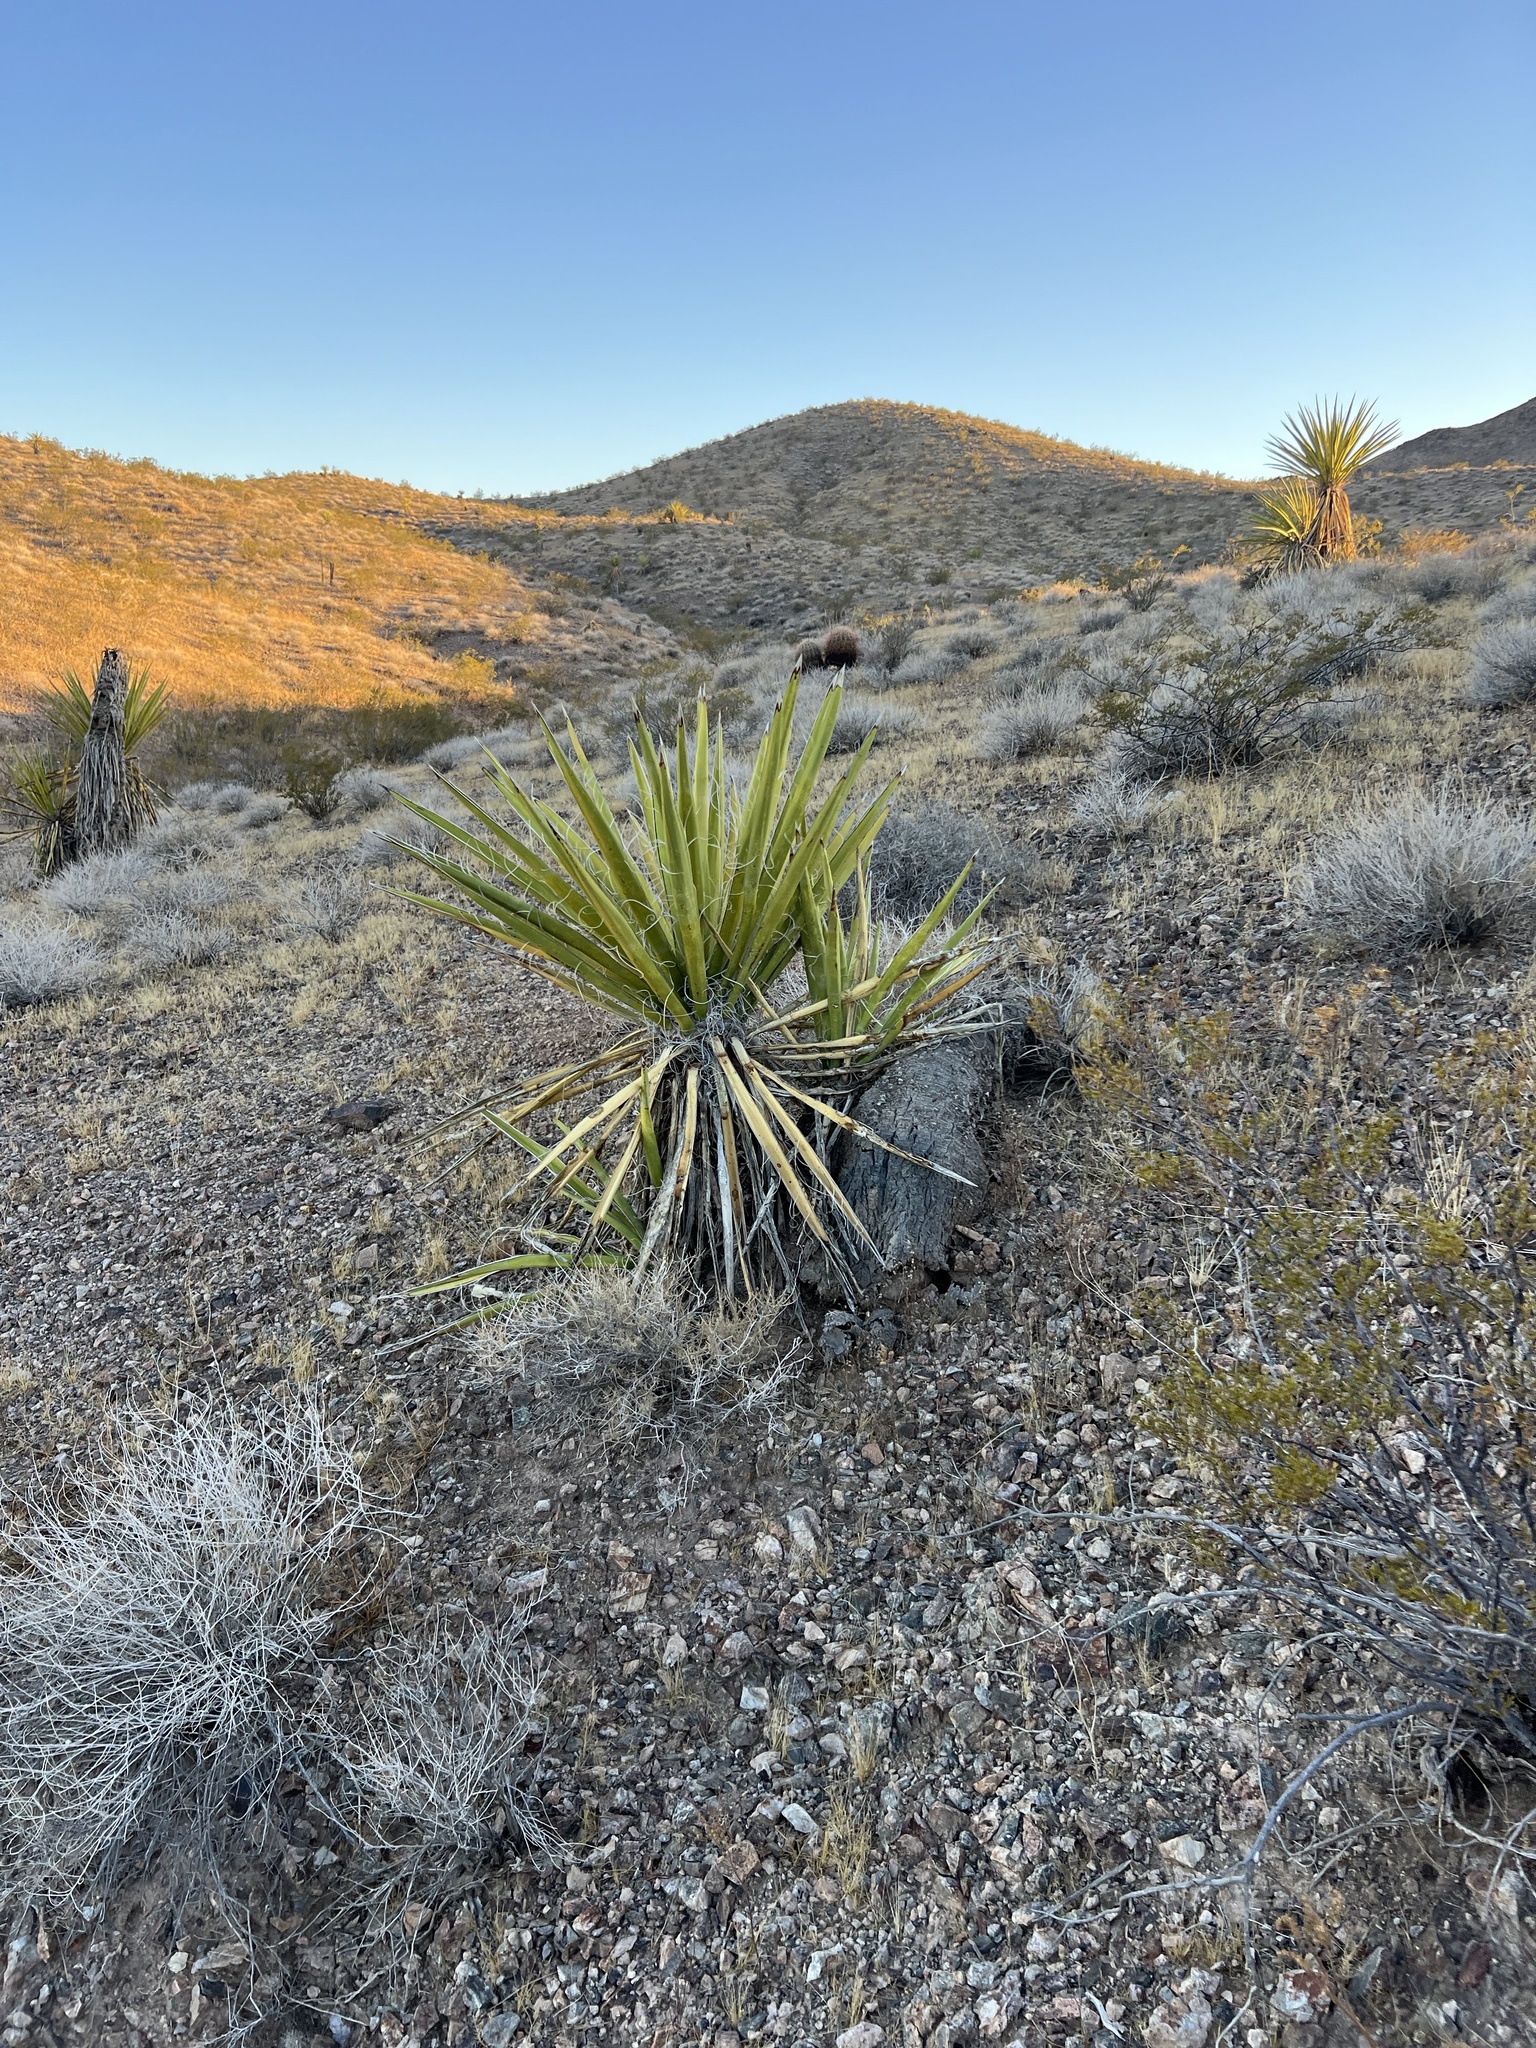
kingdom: Plantae
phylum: Tracheophyta
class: Liliopsida
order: Asparagales
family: Asparagaceae
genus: Yucca
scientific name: Yucca schidigera
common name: Mojave yucca
